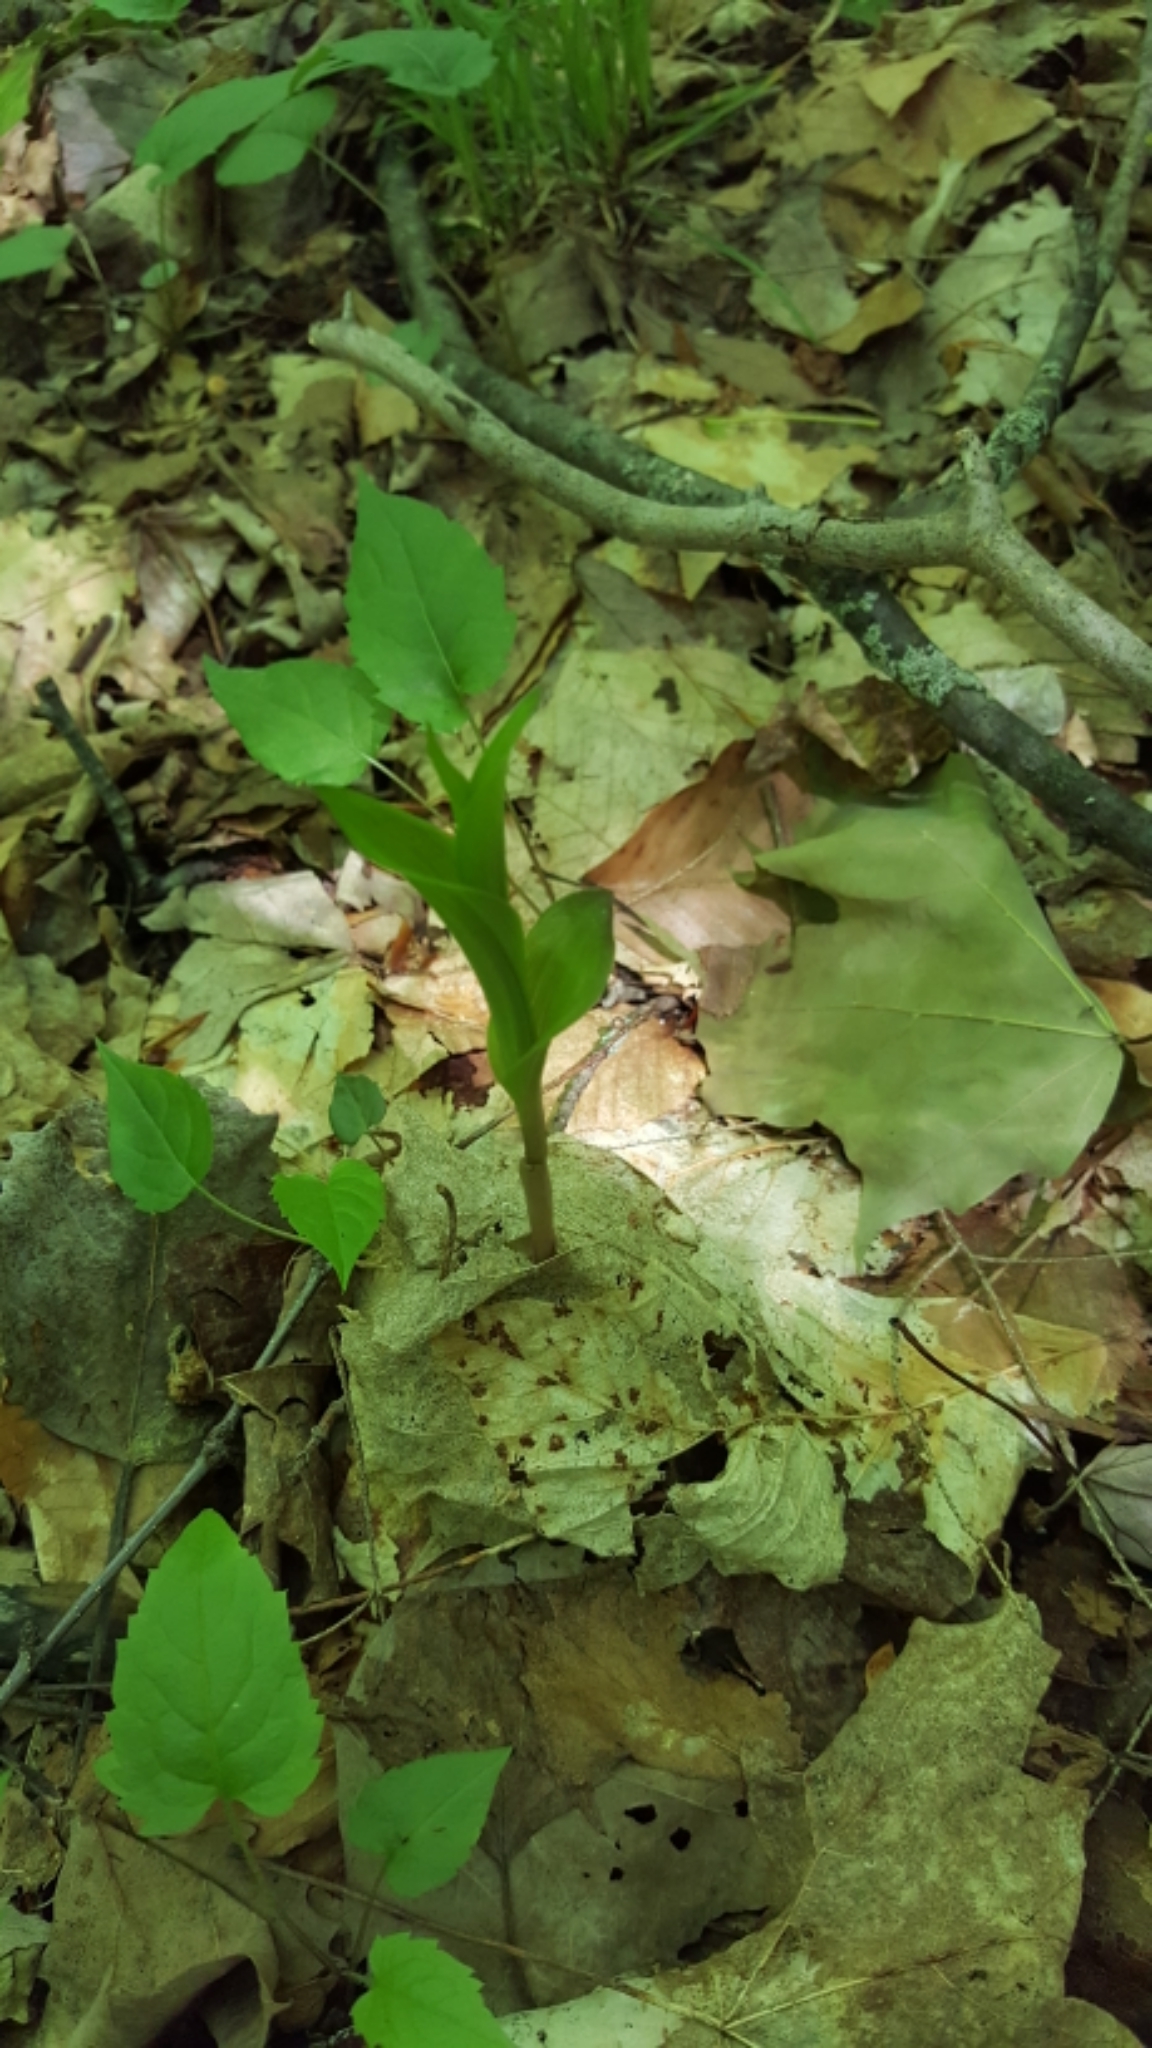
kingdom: Plantae
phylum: Tracheophyta
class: Liliopsida
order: Asparagales
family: Orchidaceae
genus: Epipactis
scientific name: Epipactis helleborine
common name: Broad-leaved helleborine
